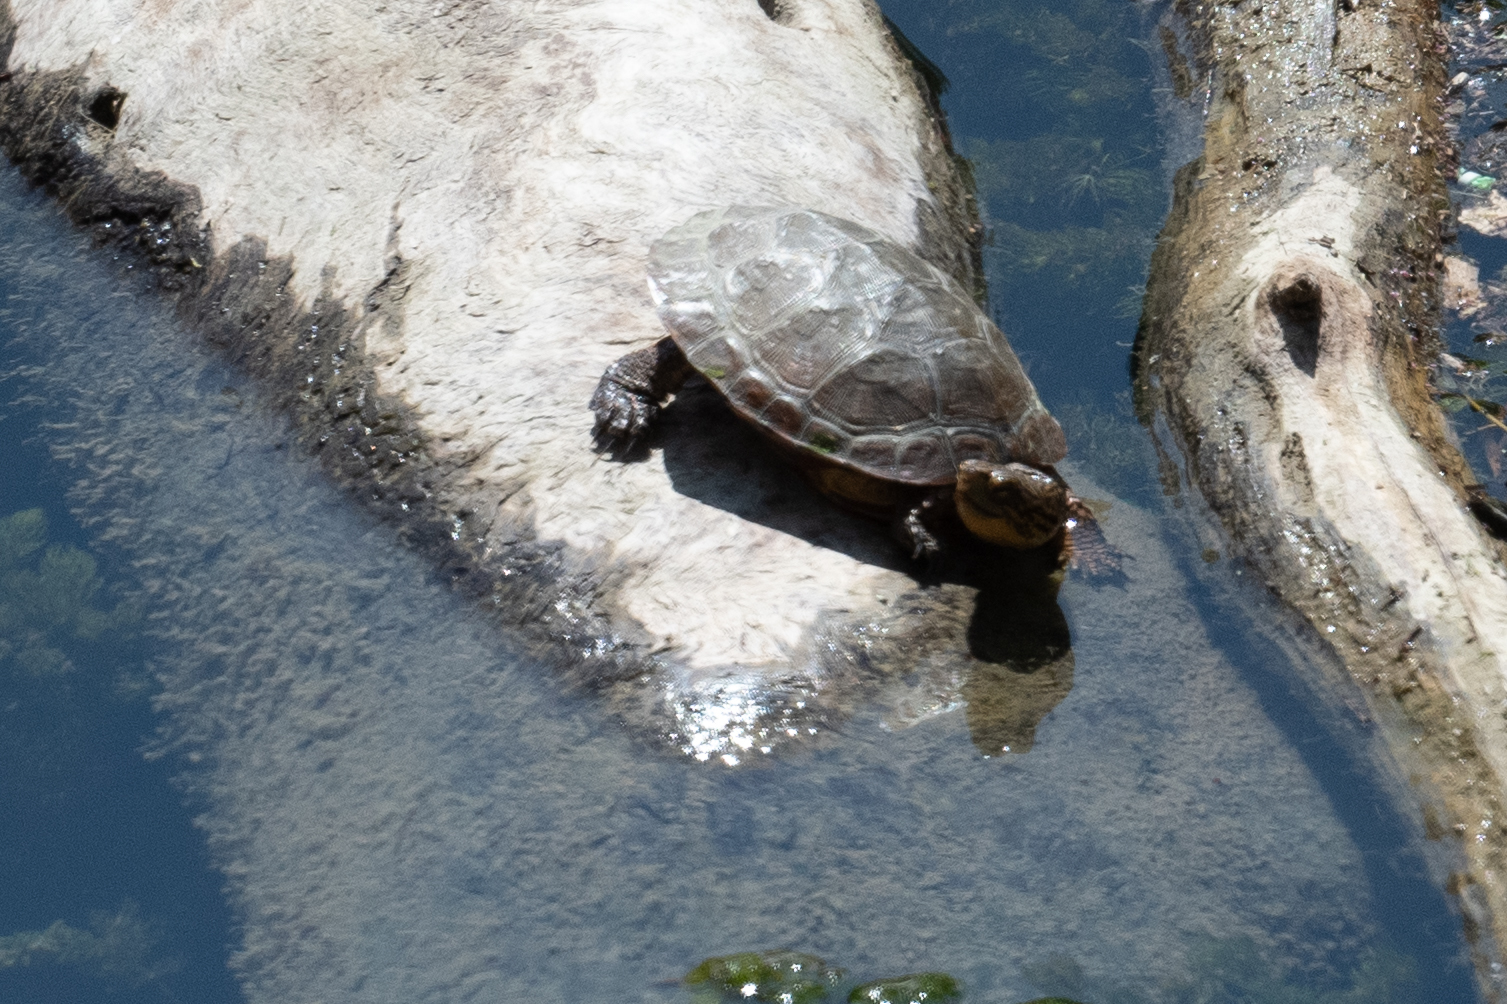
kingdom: Animalia
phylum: Chordata
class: Testudines
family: Emydidae
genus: Actinemys
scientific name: Actinemys marmorata
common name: Western pond turtle
